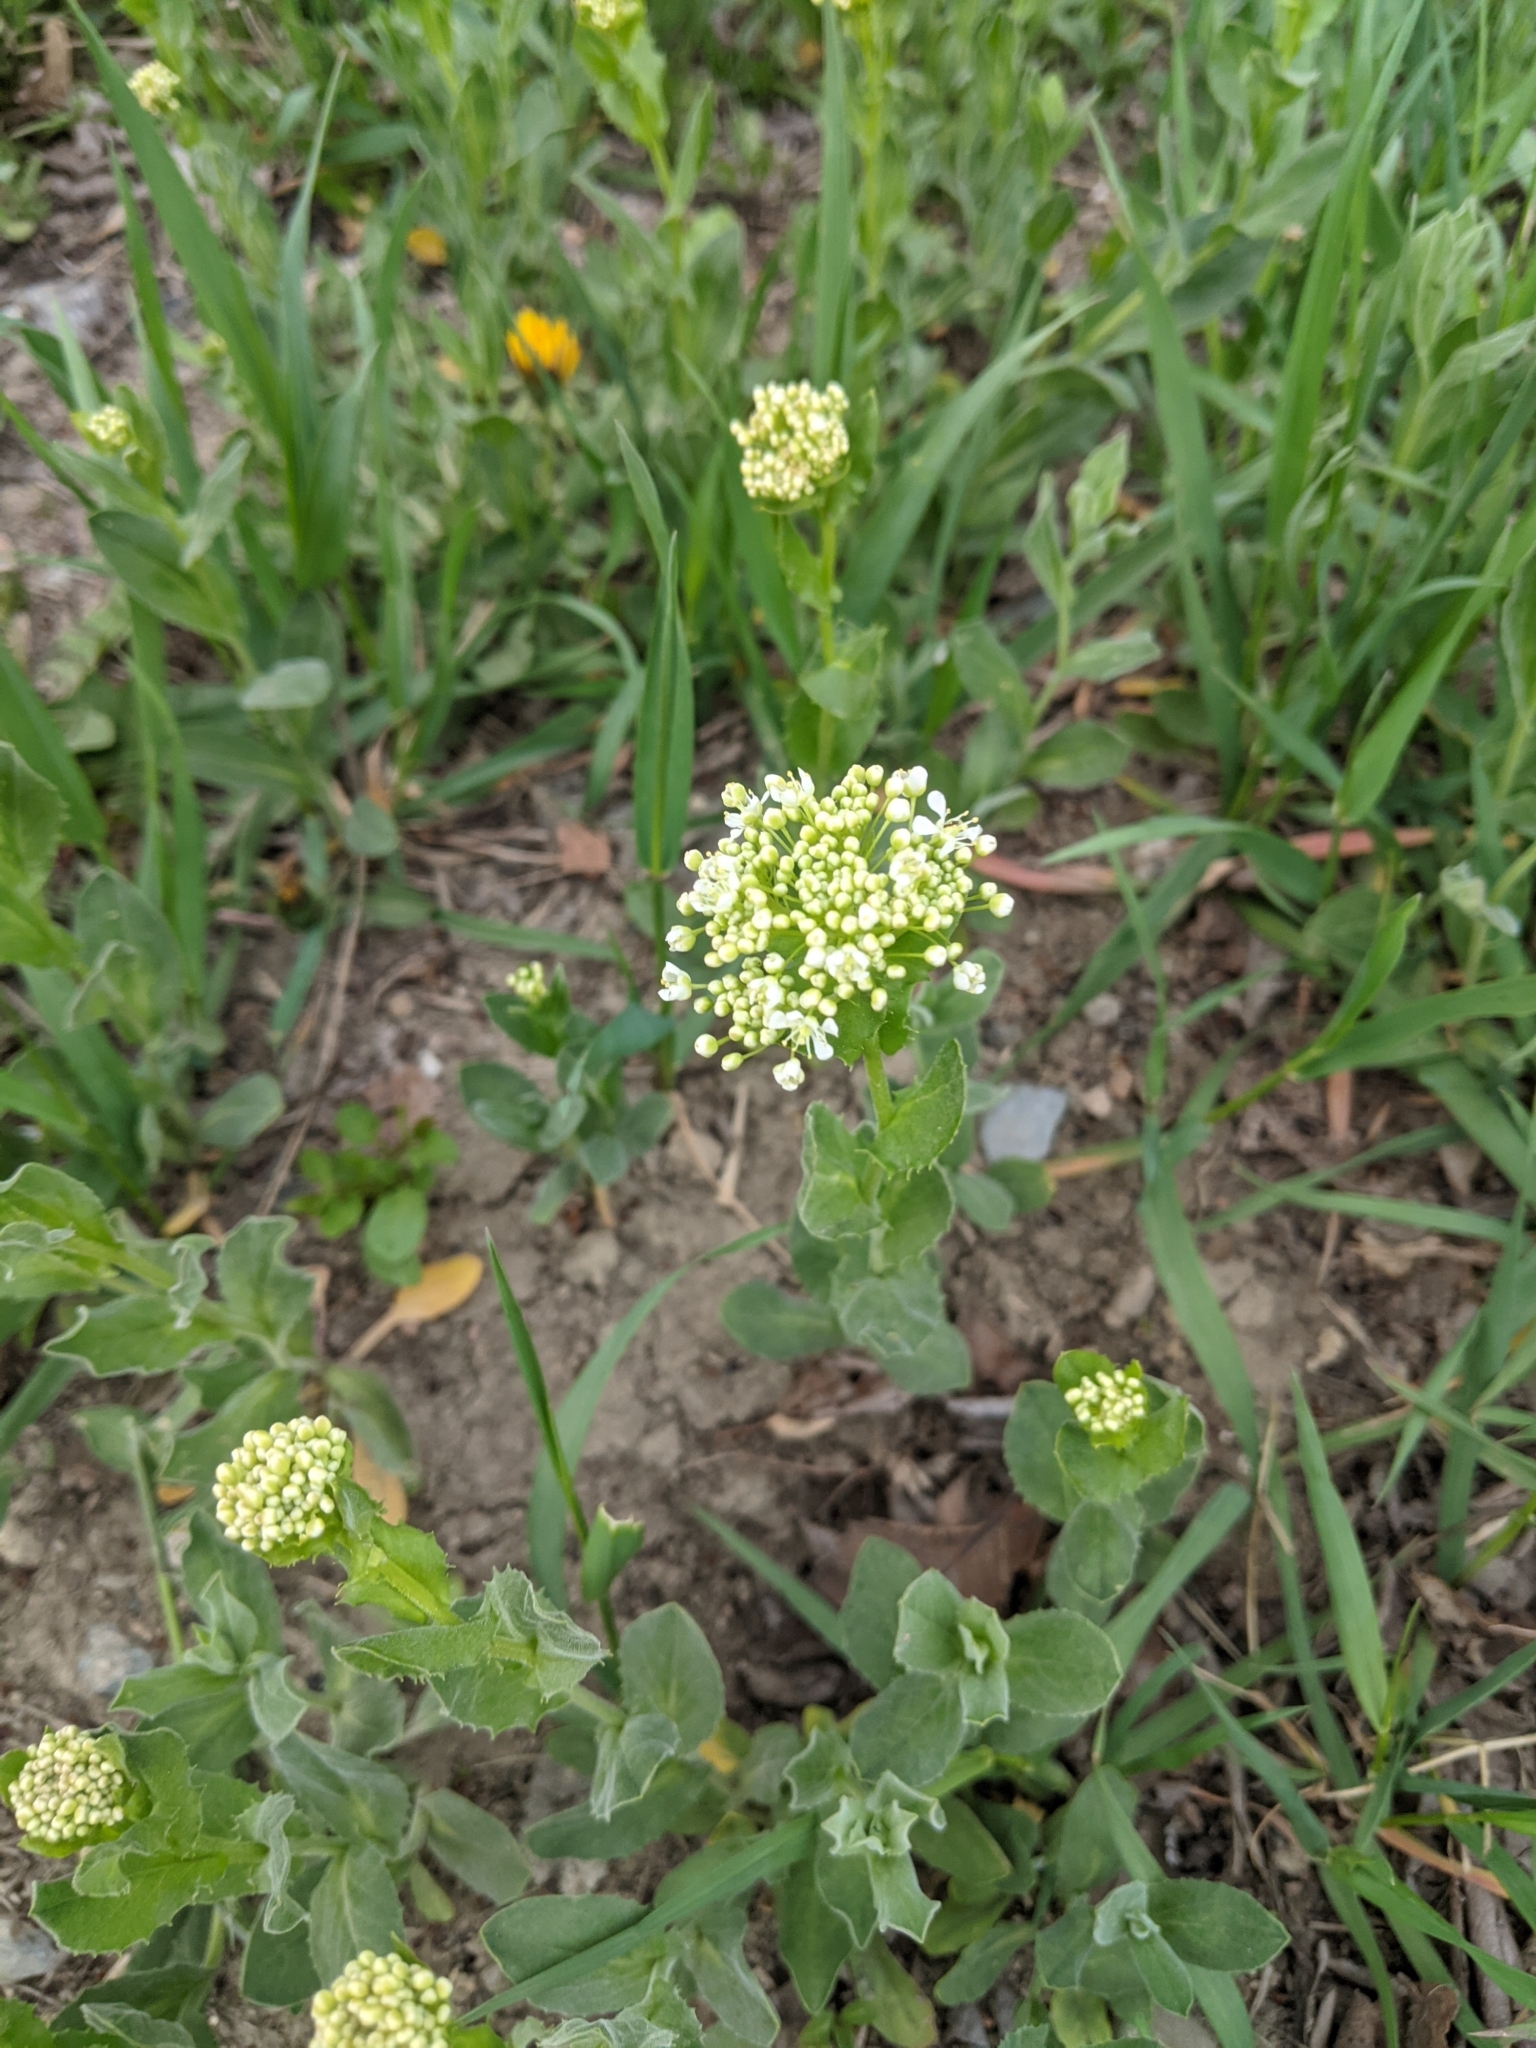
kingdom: Plantae
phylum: Tracheophyta
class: Magnoliopsida
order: Brassicales
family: Brassicaceae
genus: Lepidium
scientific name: Lepidium draba
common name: Hoary cress
